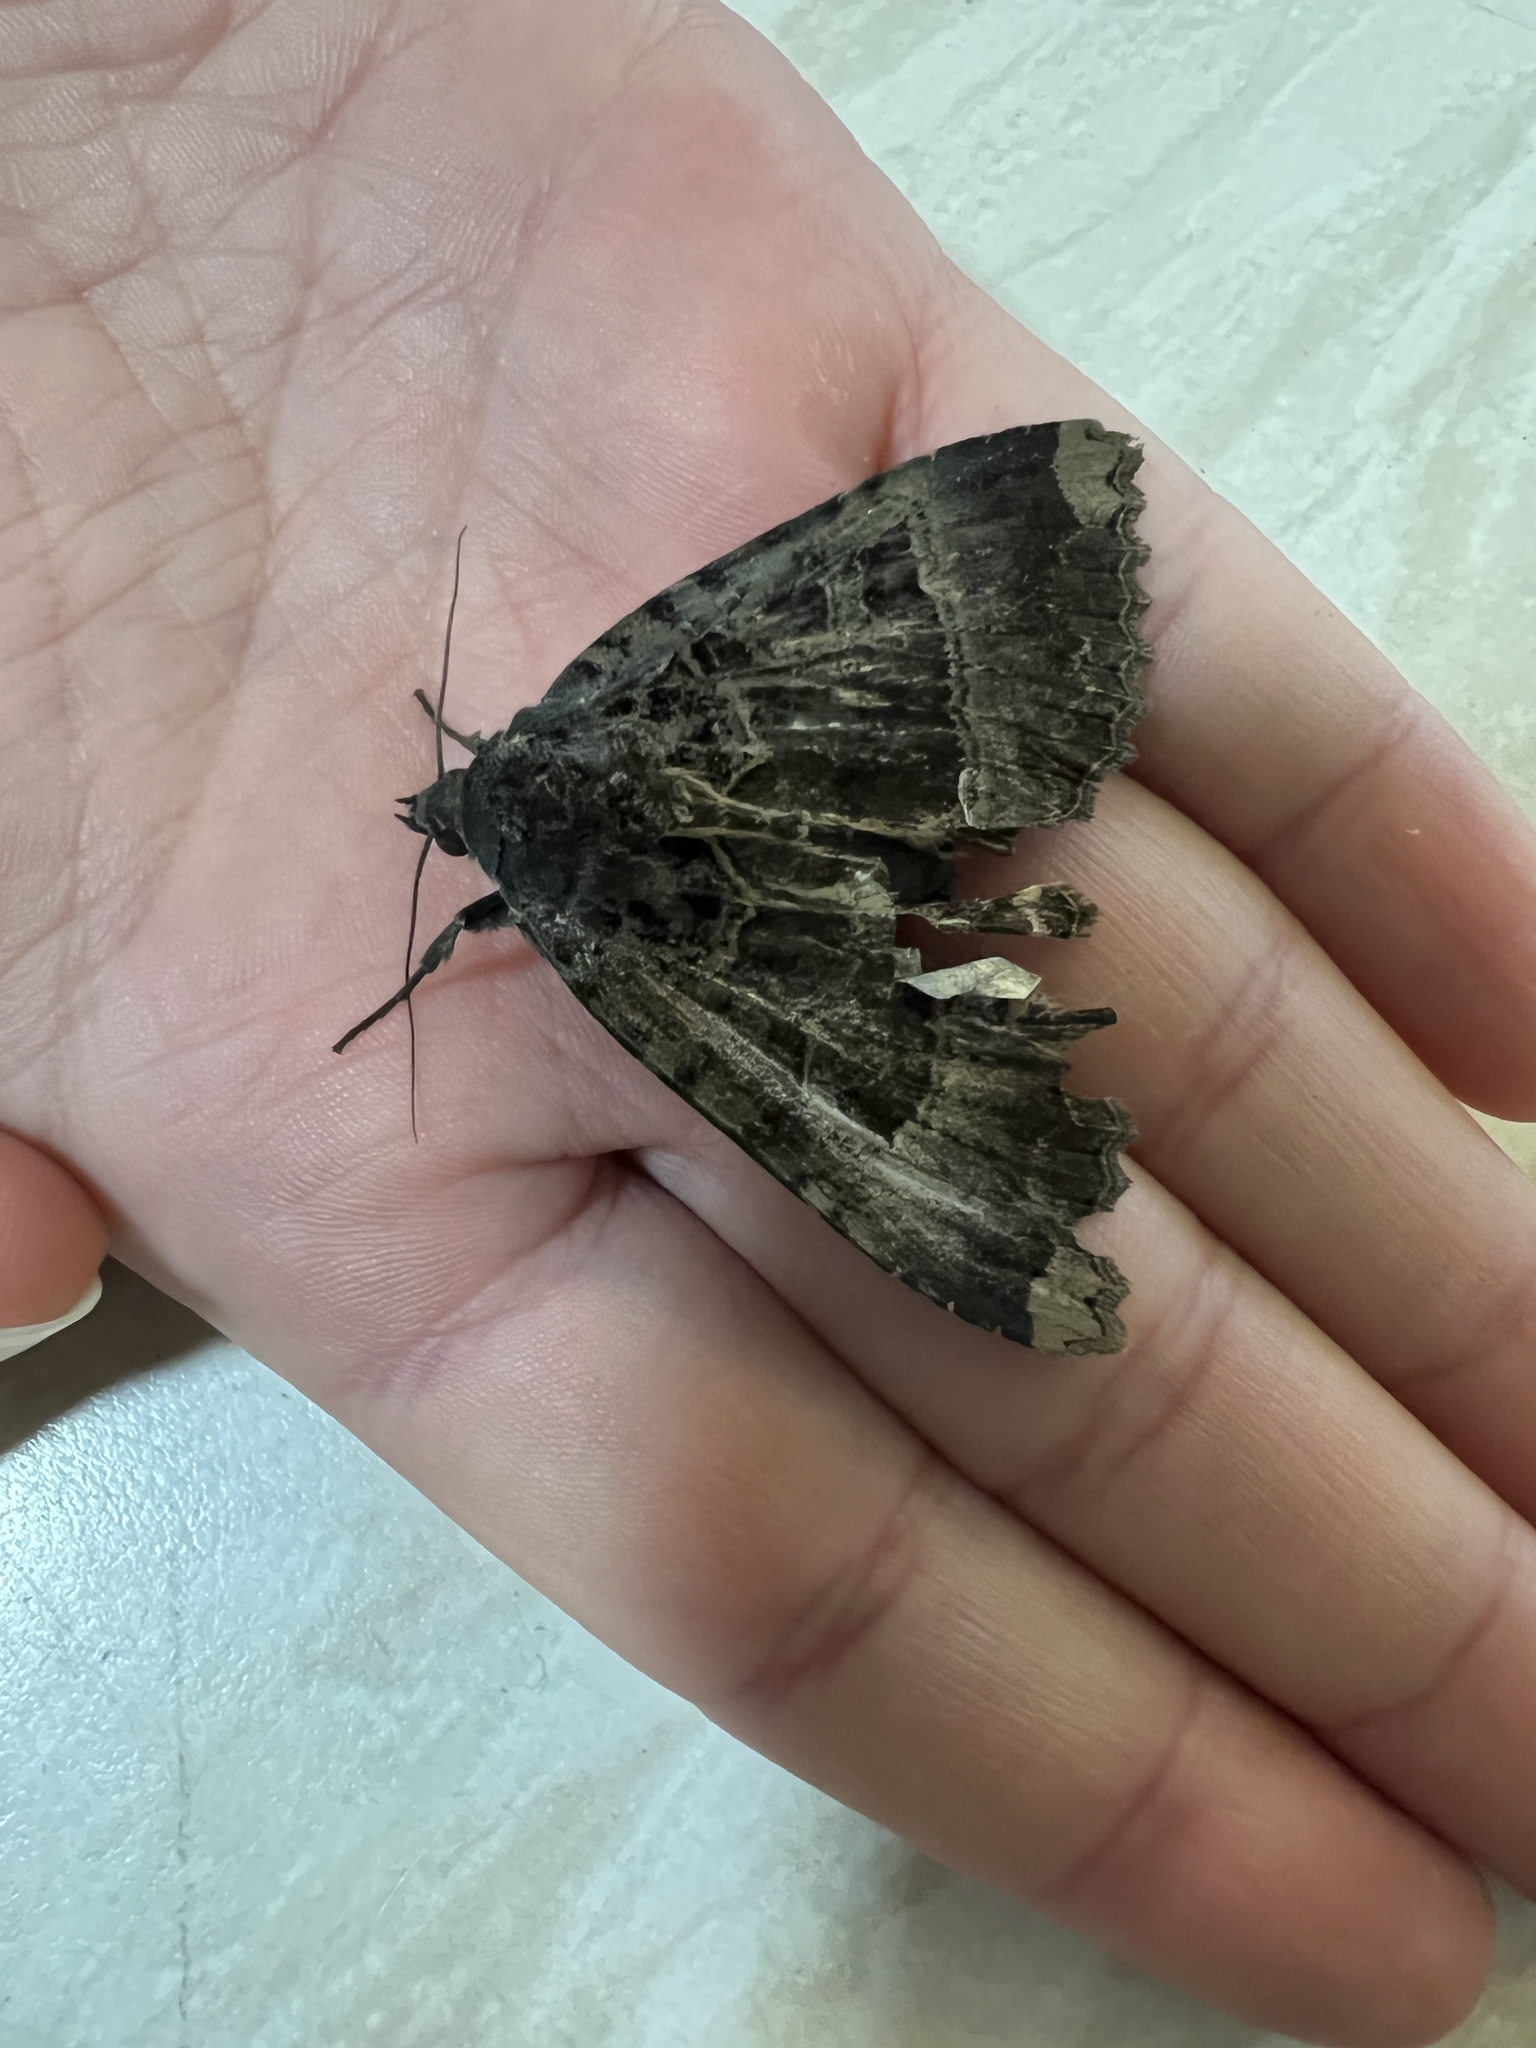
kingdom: Animalia
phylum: Arthropoda
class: Insecta
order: Lepidoptera
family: Noctuidae
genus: Mormo
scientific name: Mormo maura
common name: Old lady
